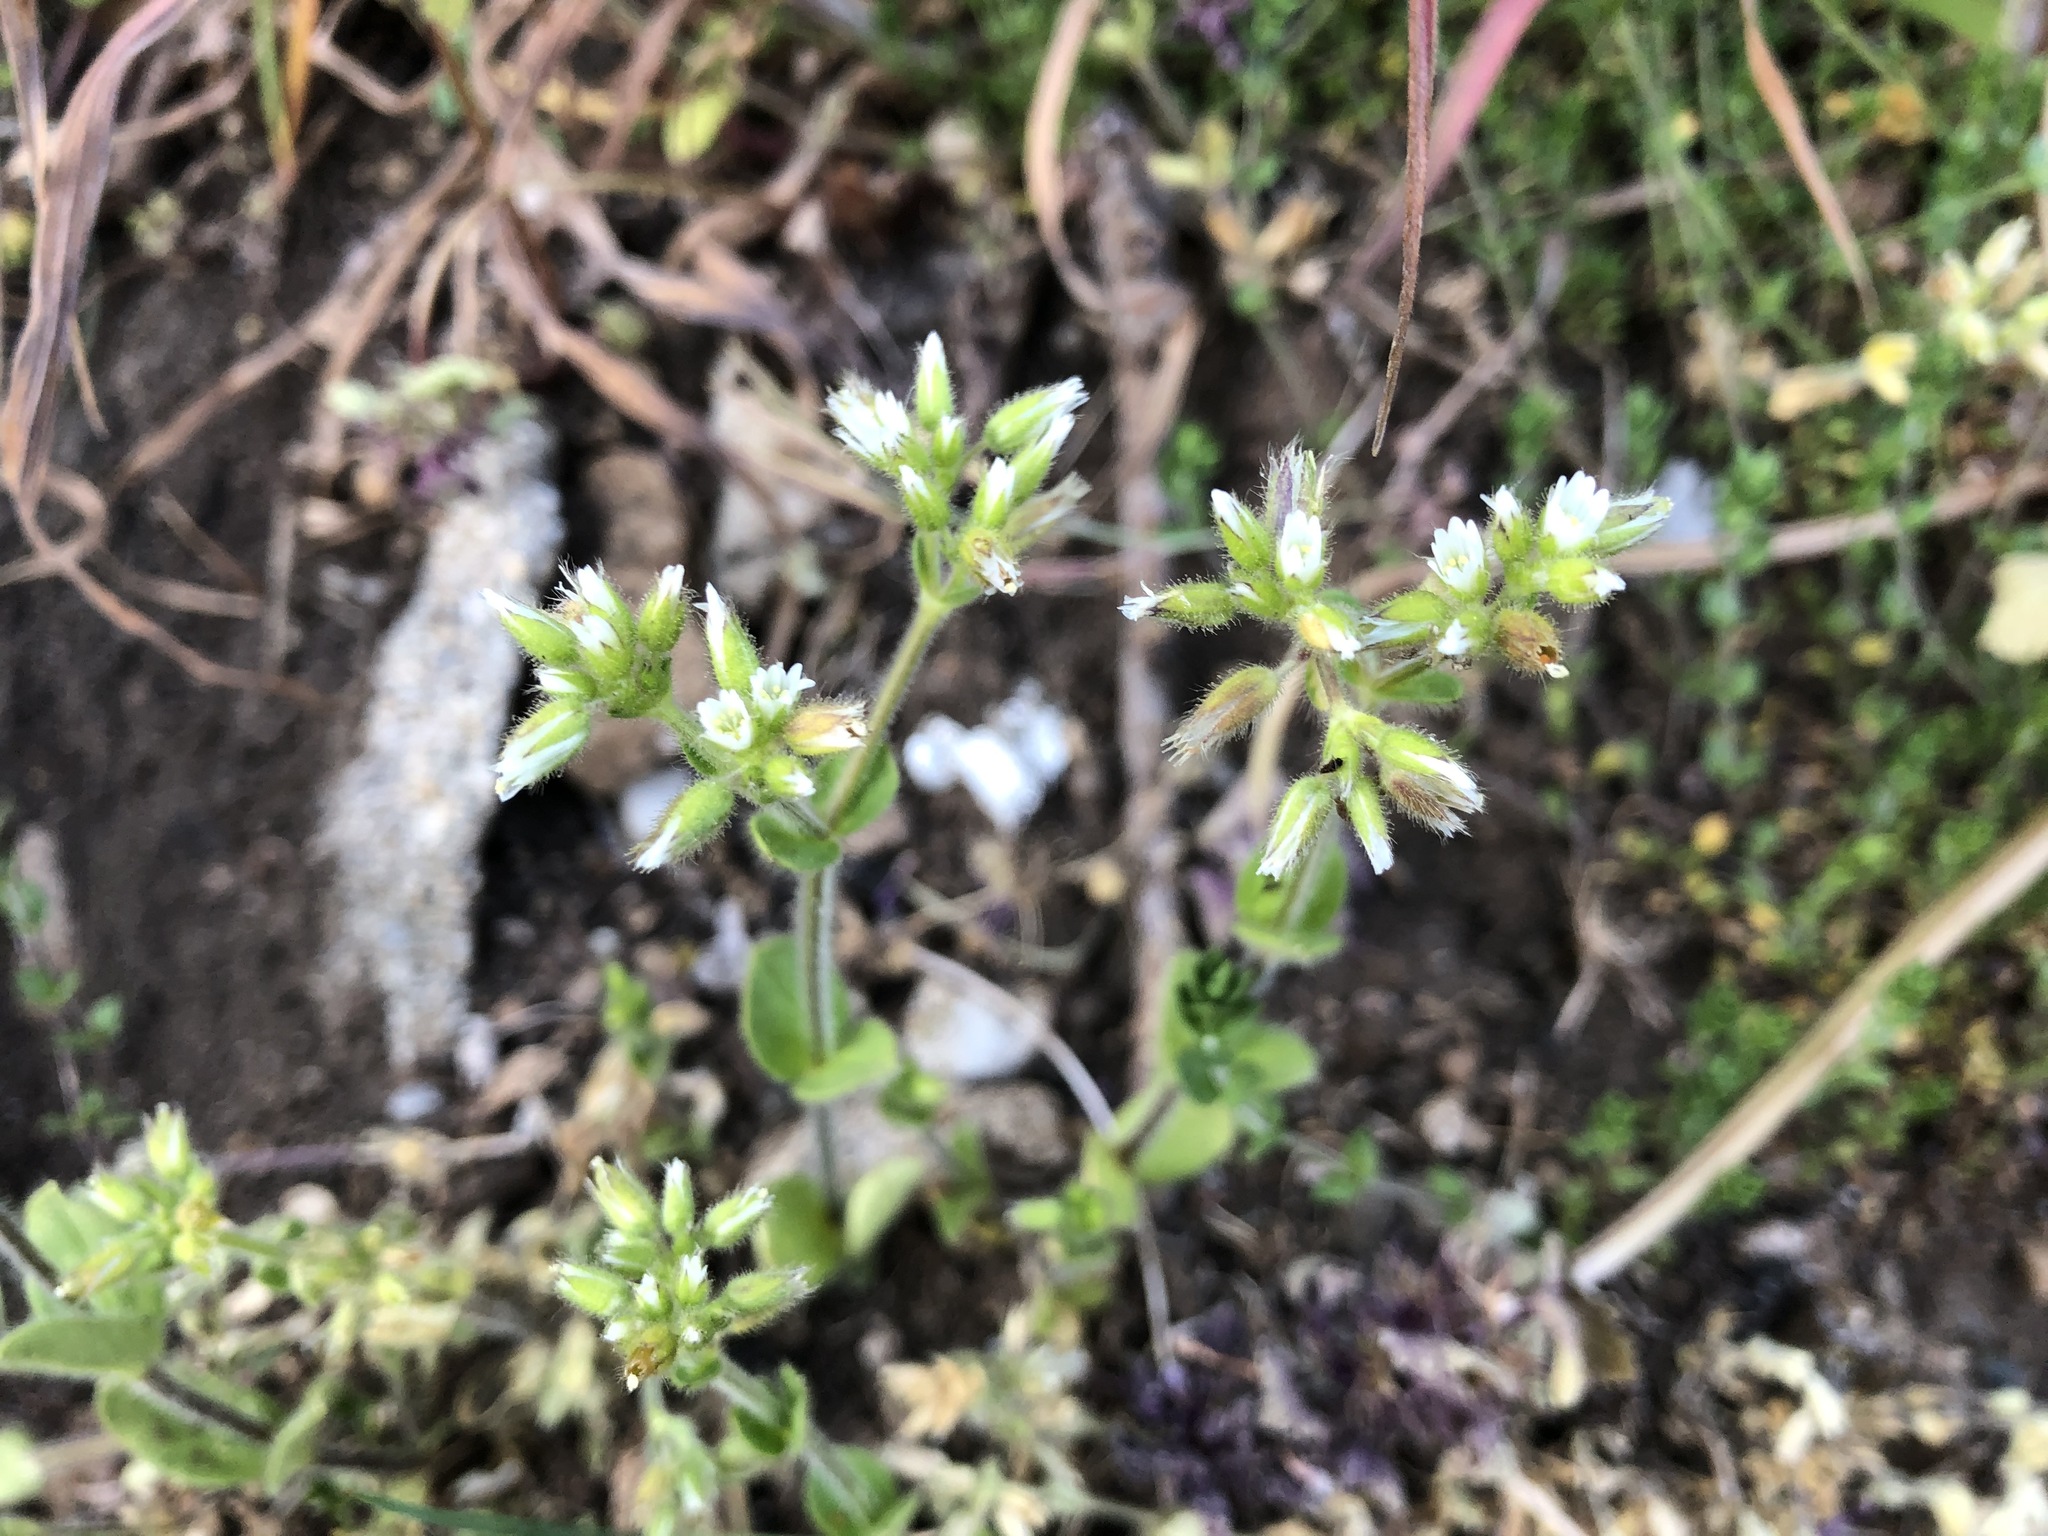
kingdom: Plantae
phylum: Tracheophyta
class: Magnoliopsida
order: Caryophyllales
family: Caryophyllaceae
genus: Cerastium
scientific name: Cerastium glomeratum
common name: Sticky chickweed
